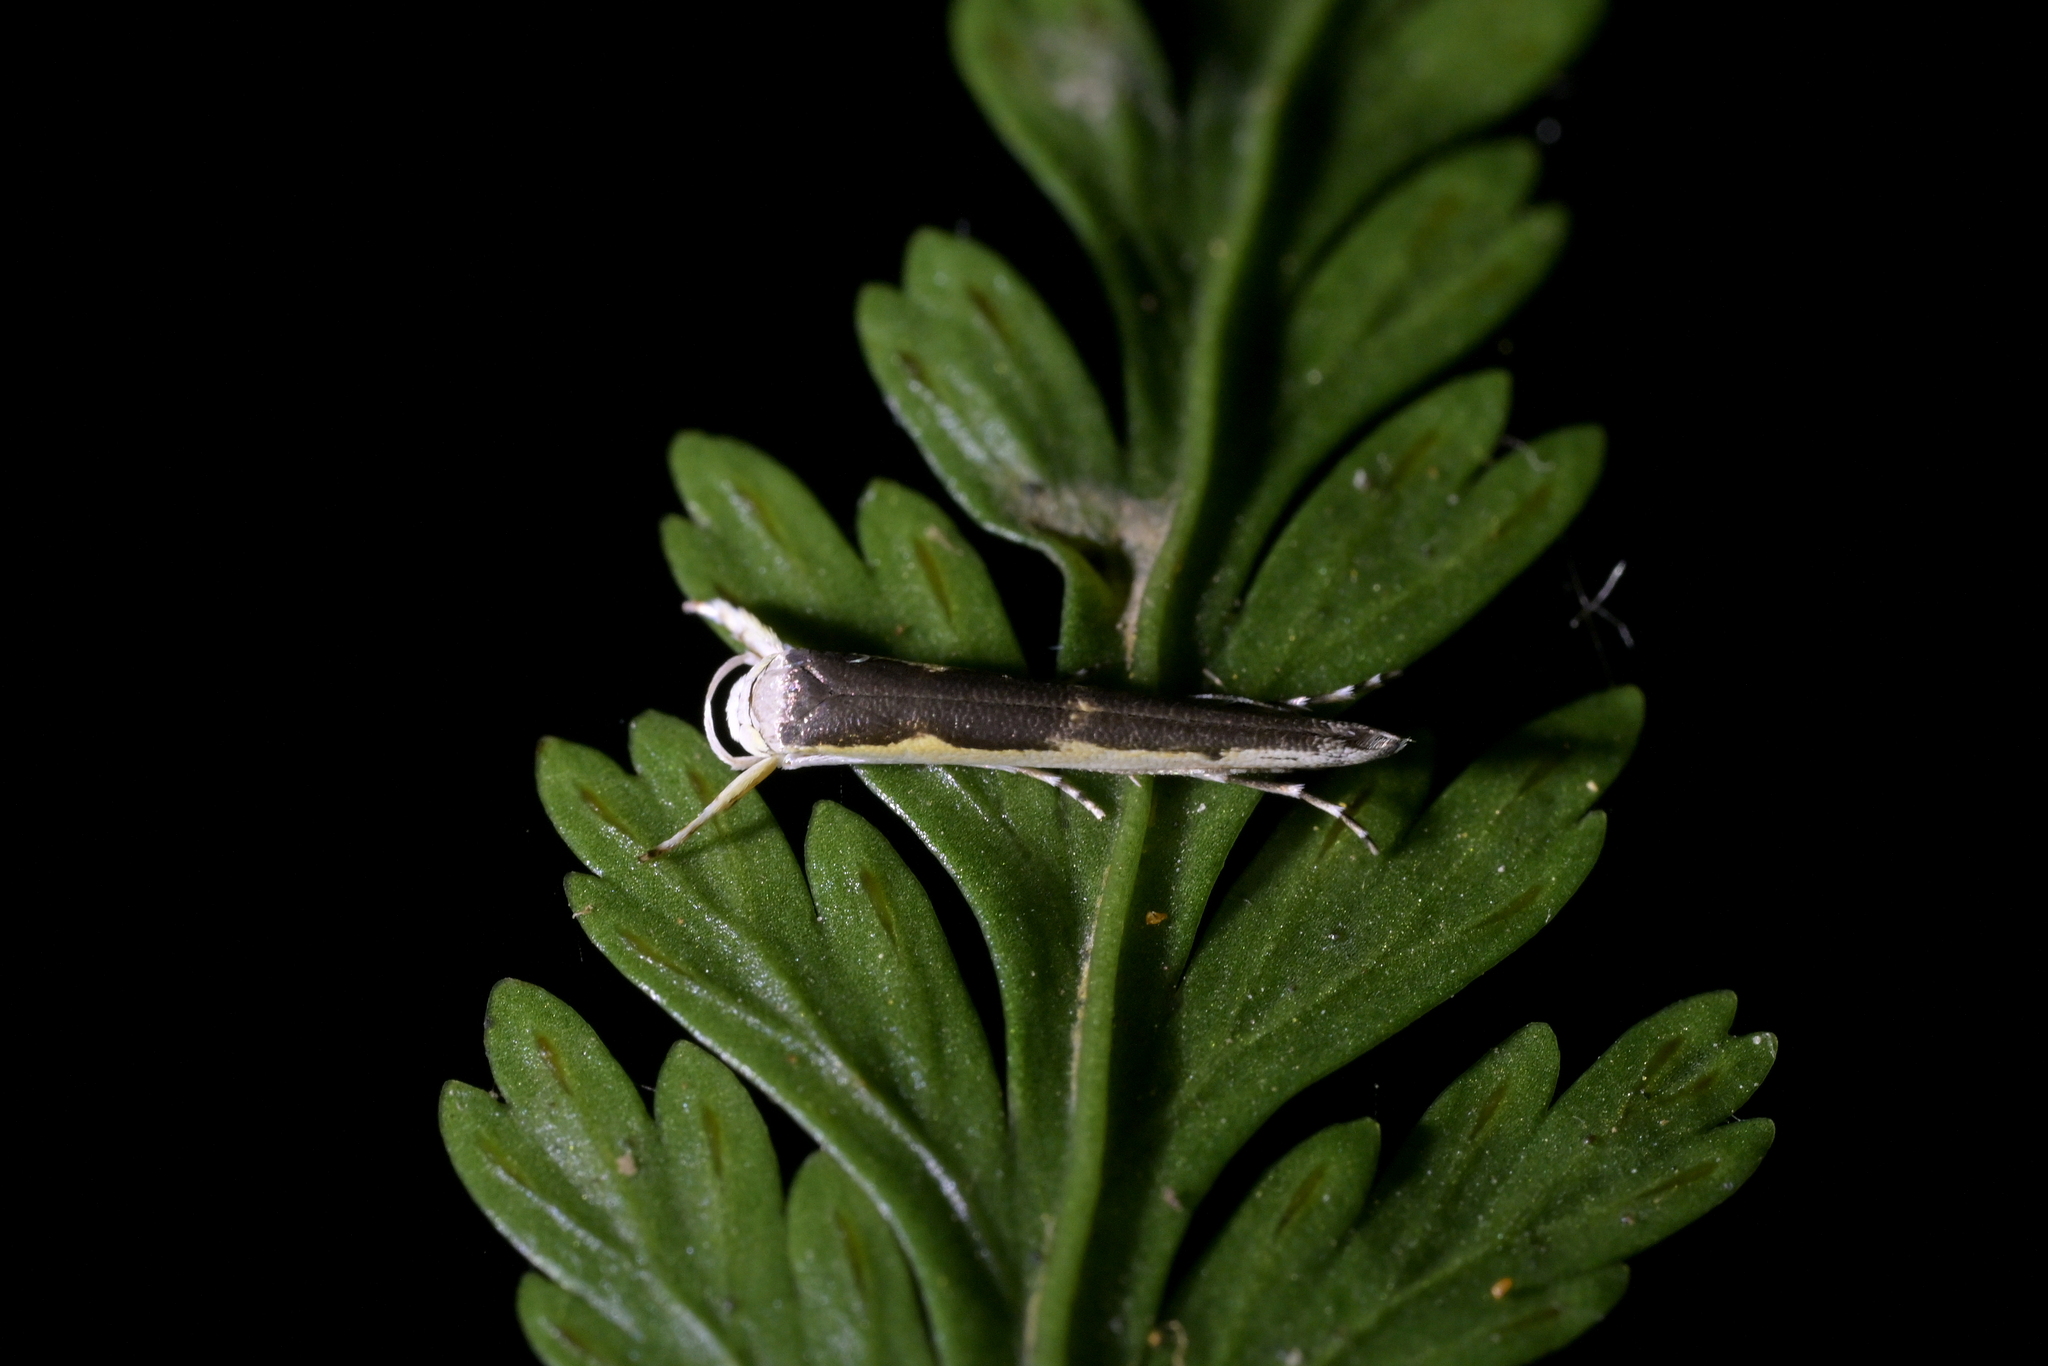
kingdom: Animalia
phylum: Arthropoda
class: Insecta
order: Lepidoptera
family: Roeslerstammiidae
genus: Vanicela
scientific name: Vanicela disjunctella
